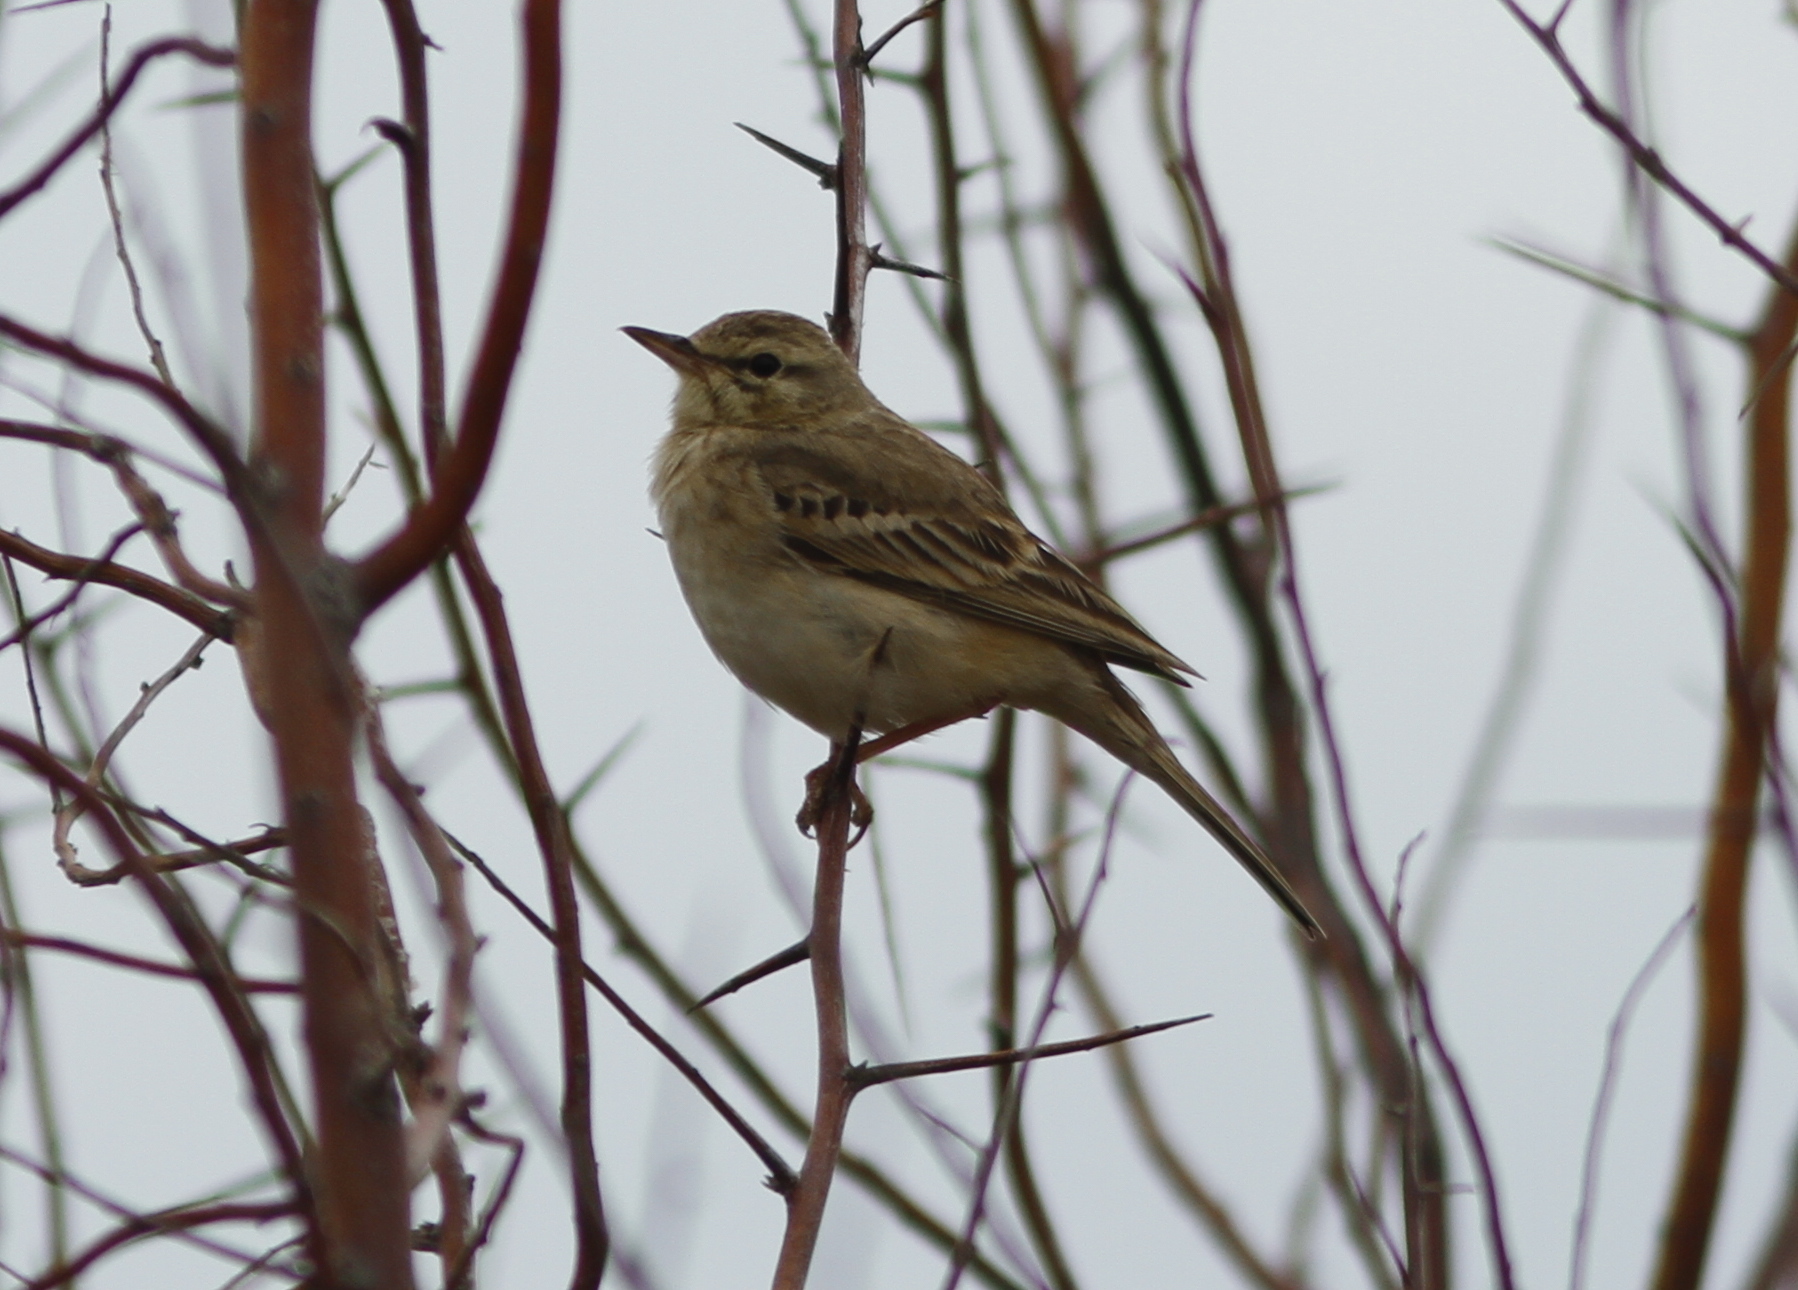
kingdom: Animalia
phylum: Chordata
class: Aves
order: Passeriformes
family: Motacillidae
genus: Anthus
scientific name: Anthus campestris
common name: Tawny pipit
